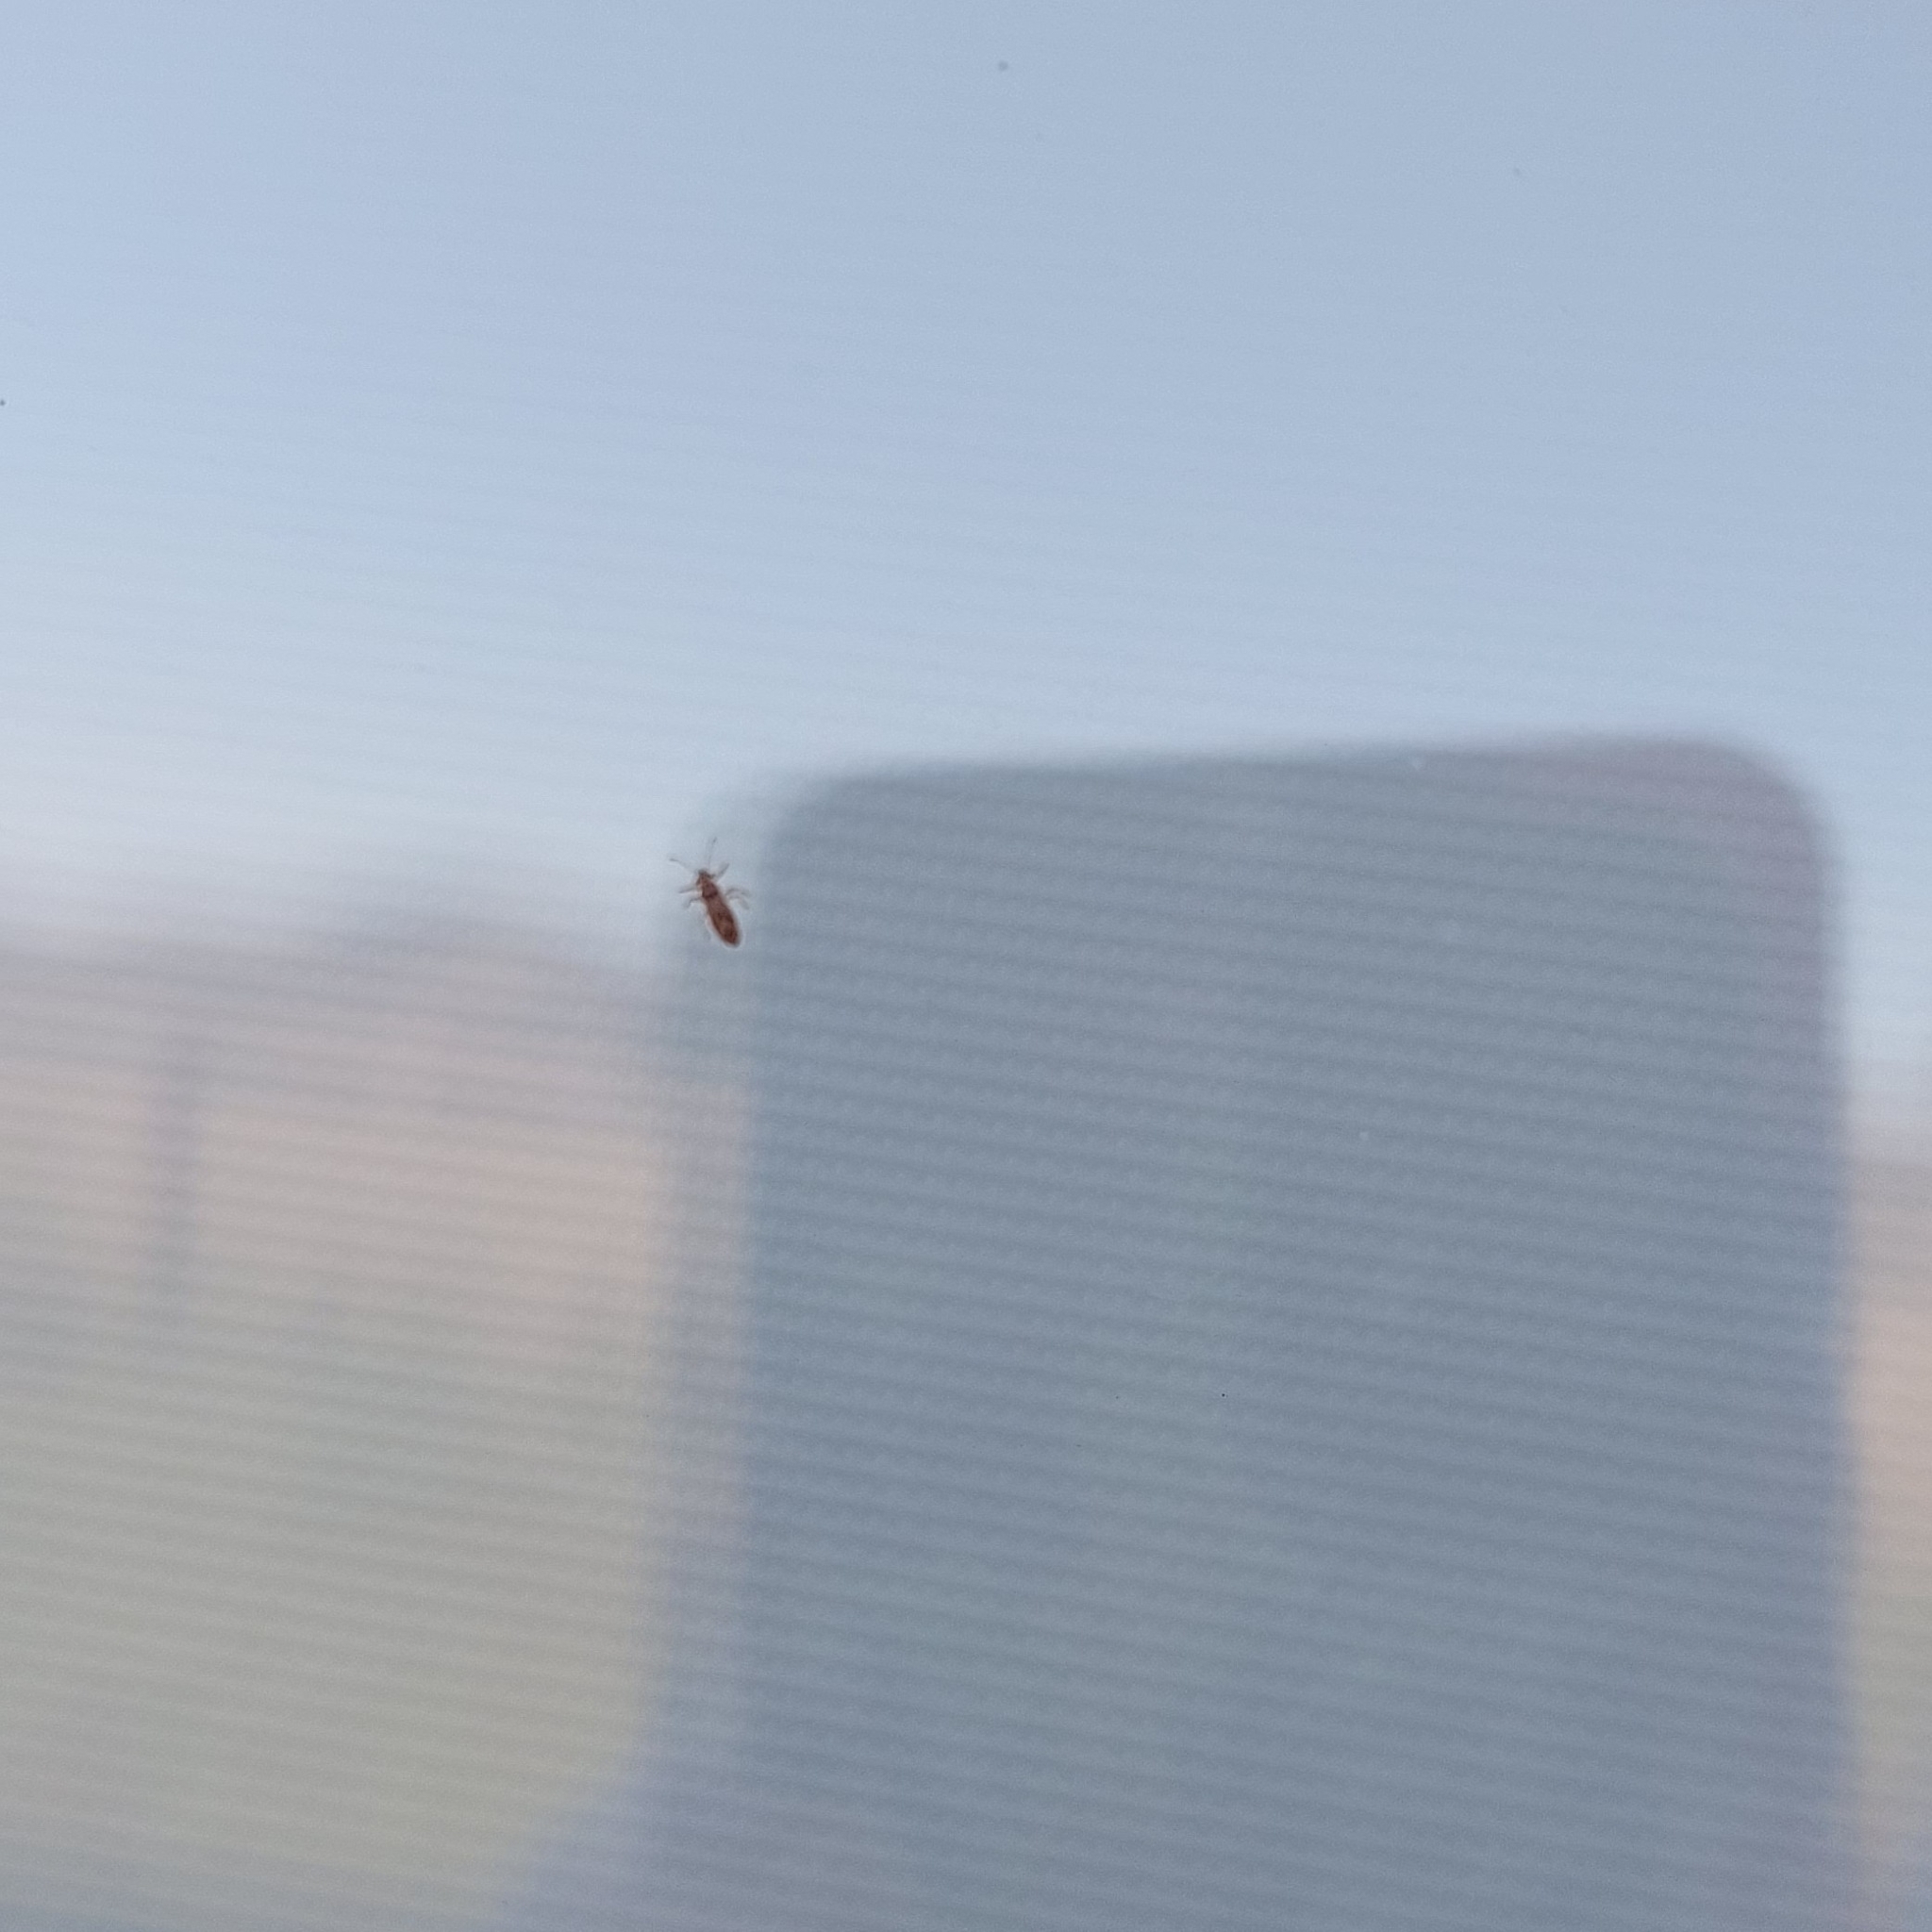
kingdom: Animalia
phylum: Arthropoda
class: Insecta
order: Hemiptera
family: Thaumastocoridae
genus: Thaumastocoris
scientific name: Thaumastocoris peregrinus
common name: Bronze bug
